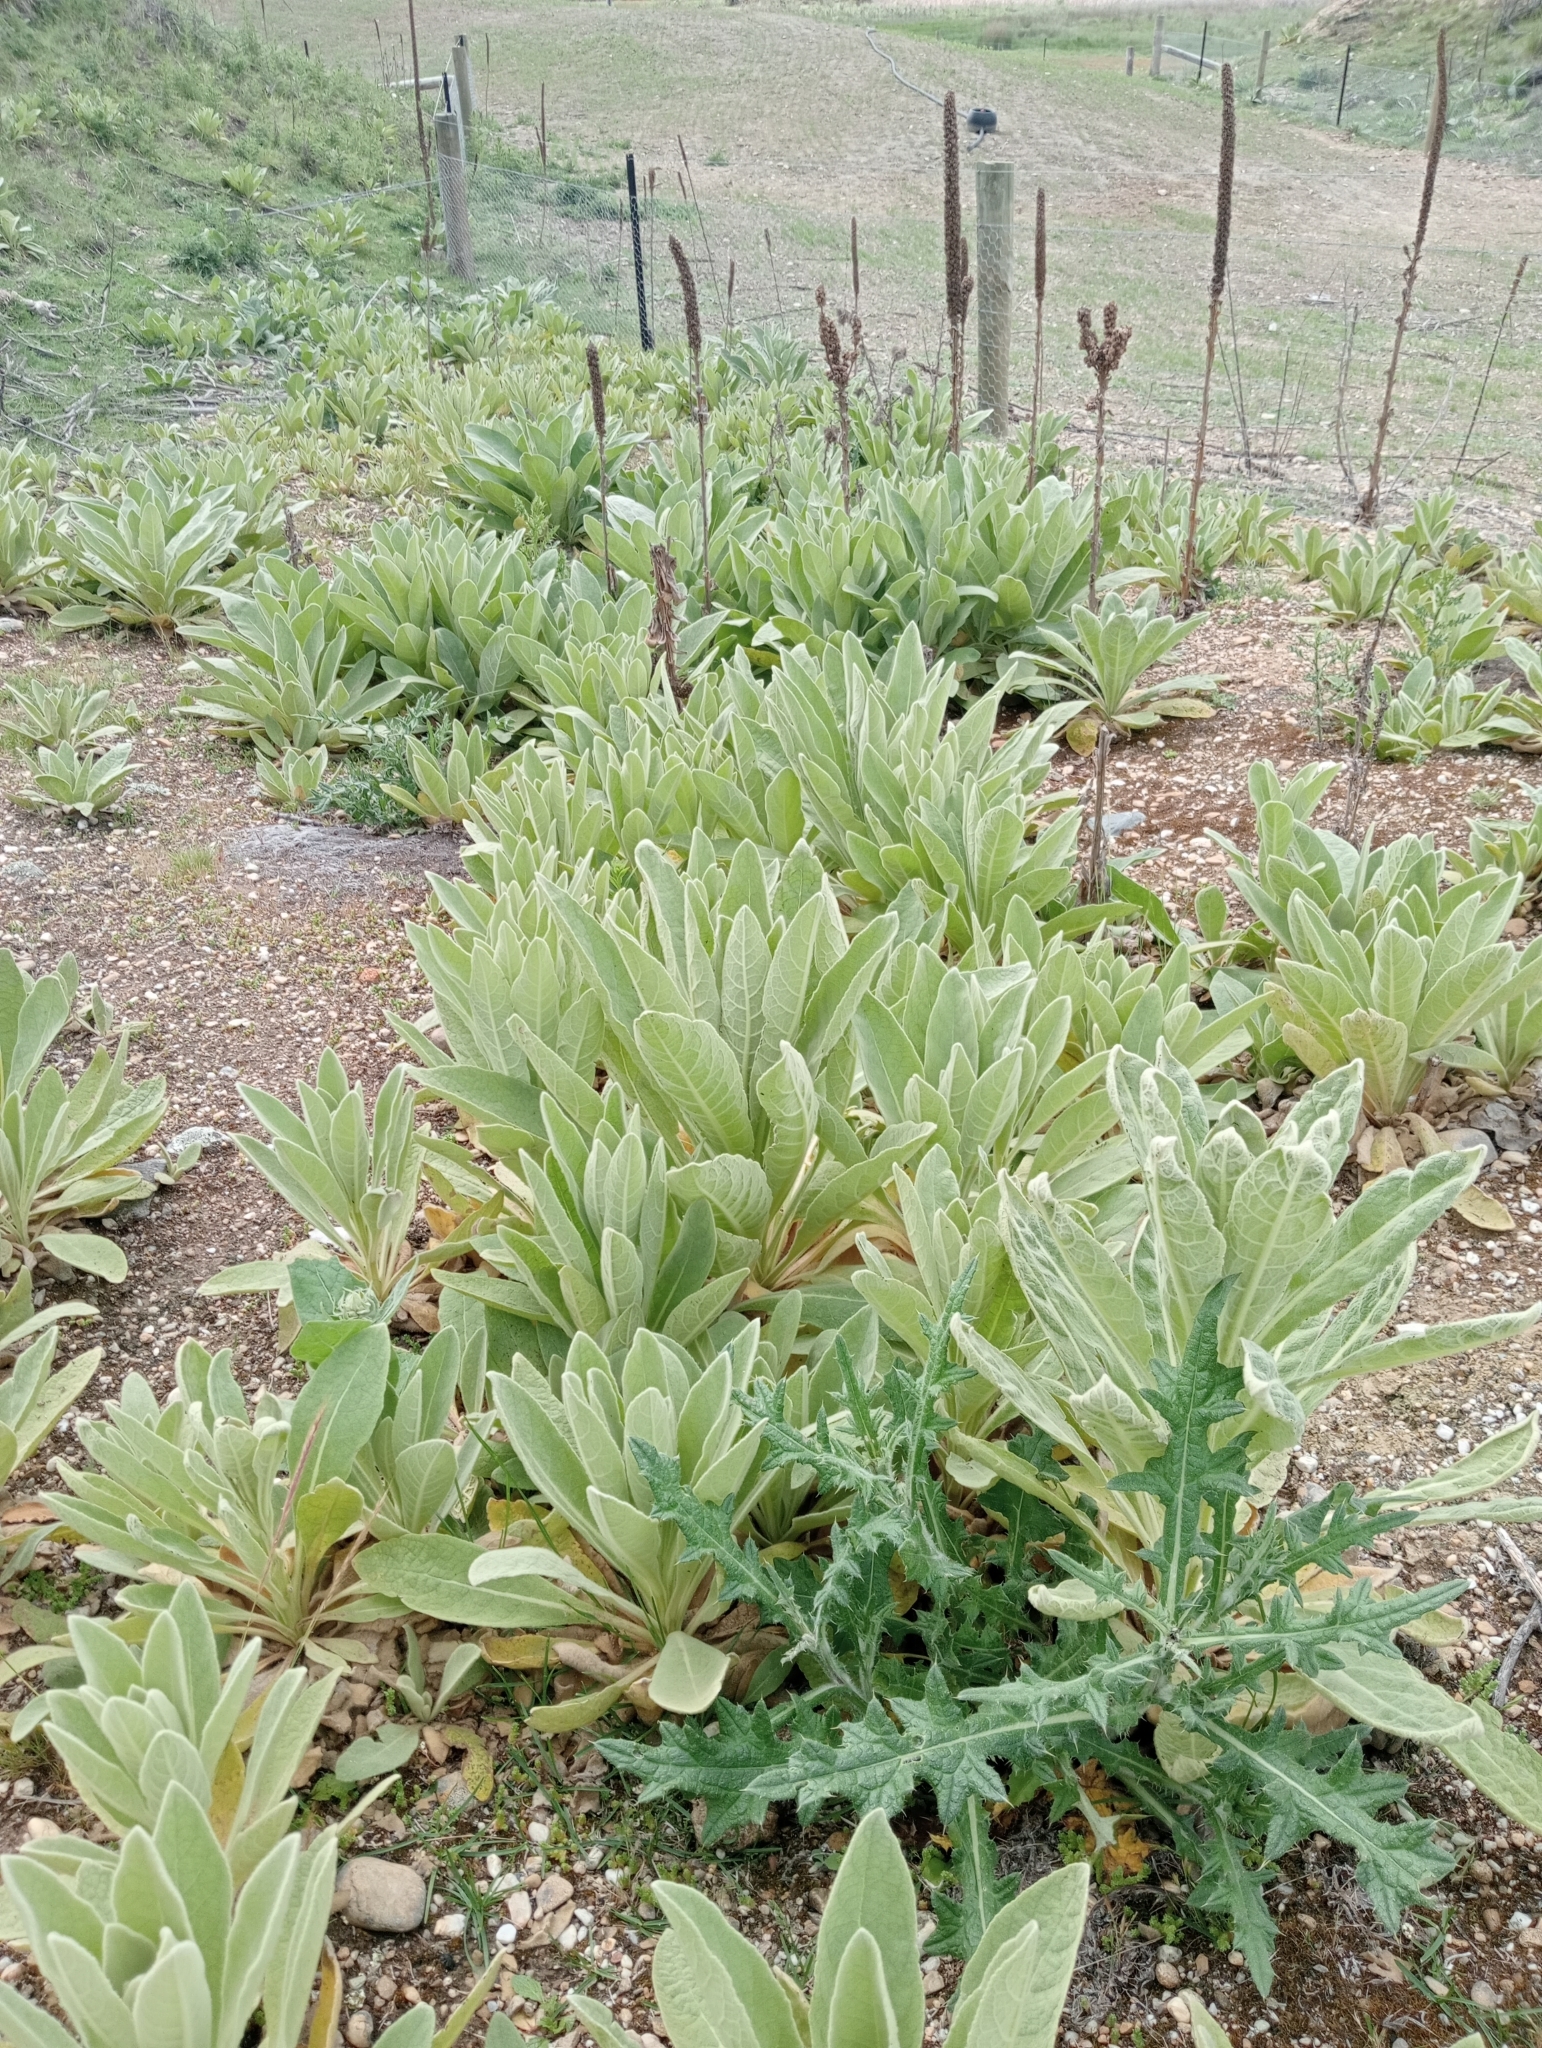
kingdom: Plantae
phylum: Tracheophyta
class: Magnoliopsida
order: Lamiales
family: Scrophulariaceae
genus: Verbascum
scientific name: Verbascum thapsus
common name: Common mullein
